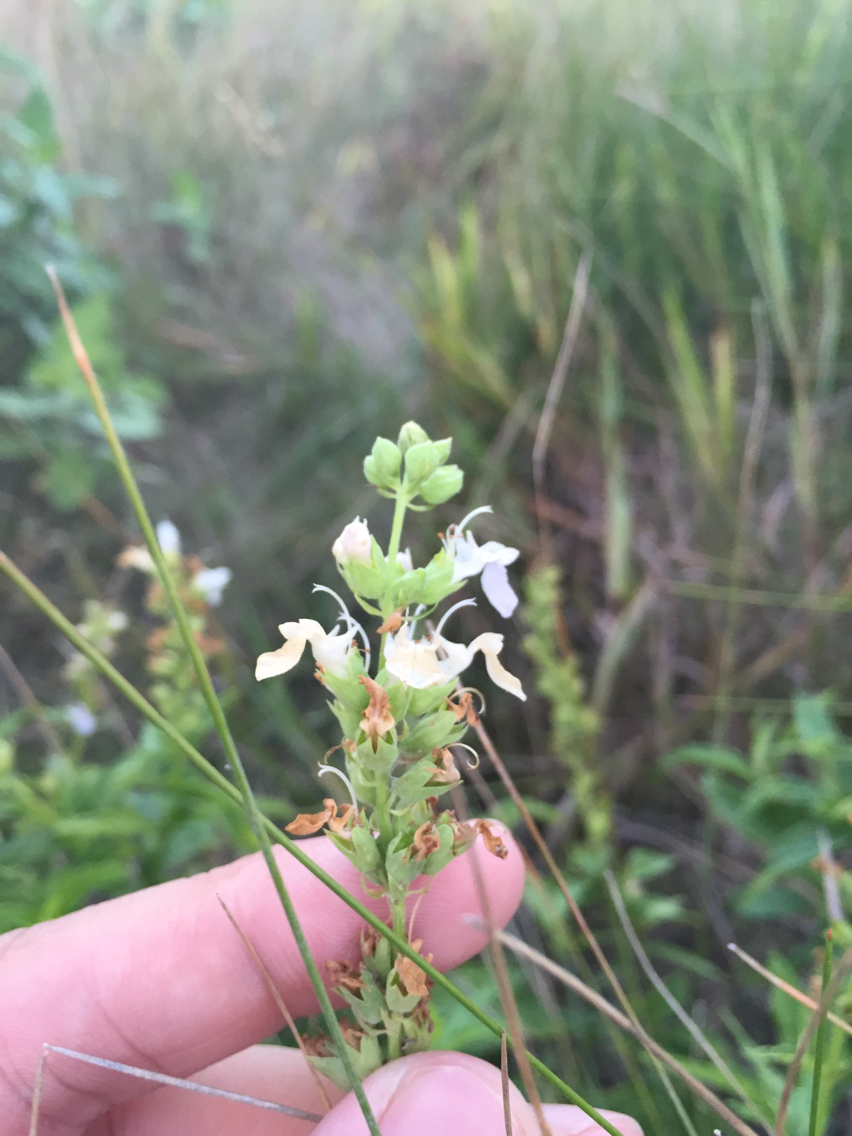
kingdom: Plantae
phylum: Tracheophyta
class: Magnoliopsida
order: Lamiales
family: Lamiaceae
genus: Teucrium
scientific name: Teucrium canadense
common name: American germander
